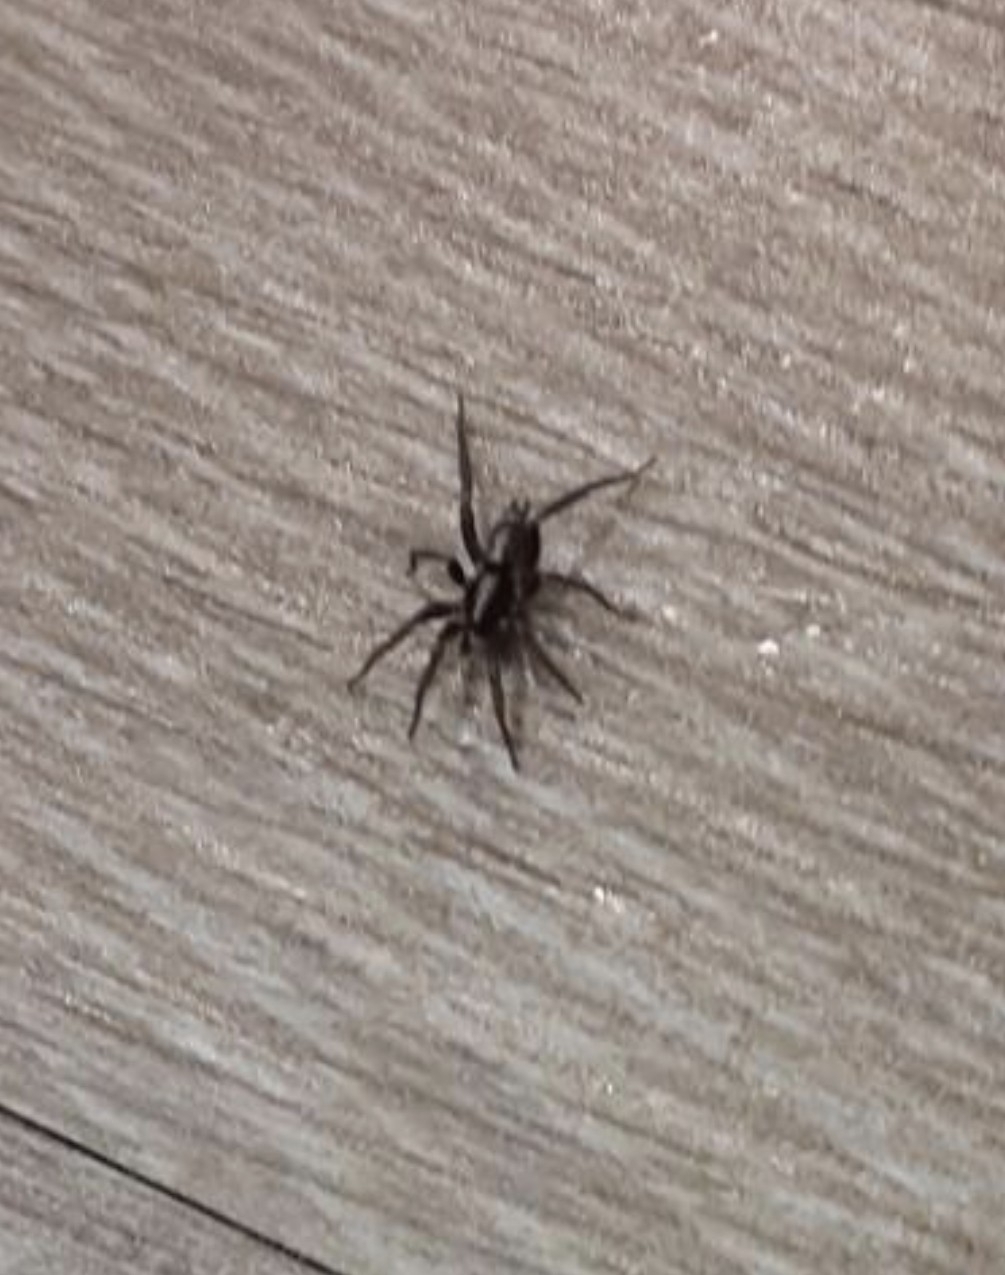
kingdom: Animalia
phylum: Arthropoda
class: Arachnida
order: Araneae
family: Gnaphosidae
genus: Herpyllus
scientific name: Herpyllus ecclesiasticus
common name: Eastern parson spider
